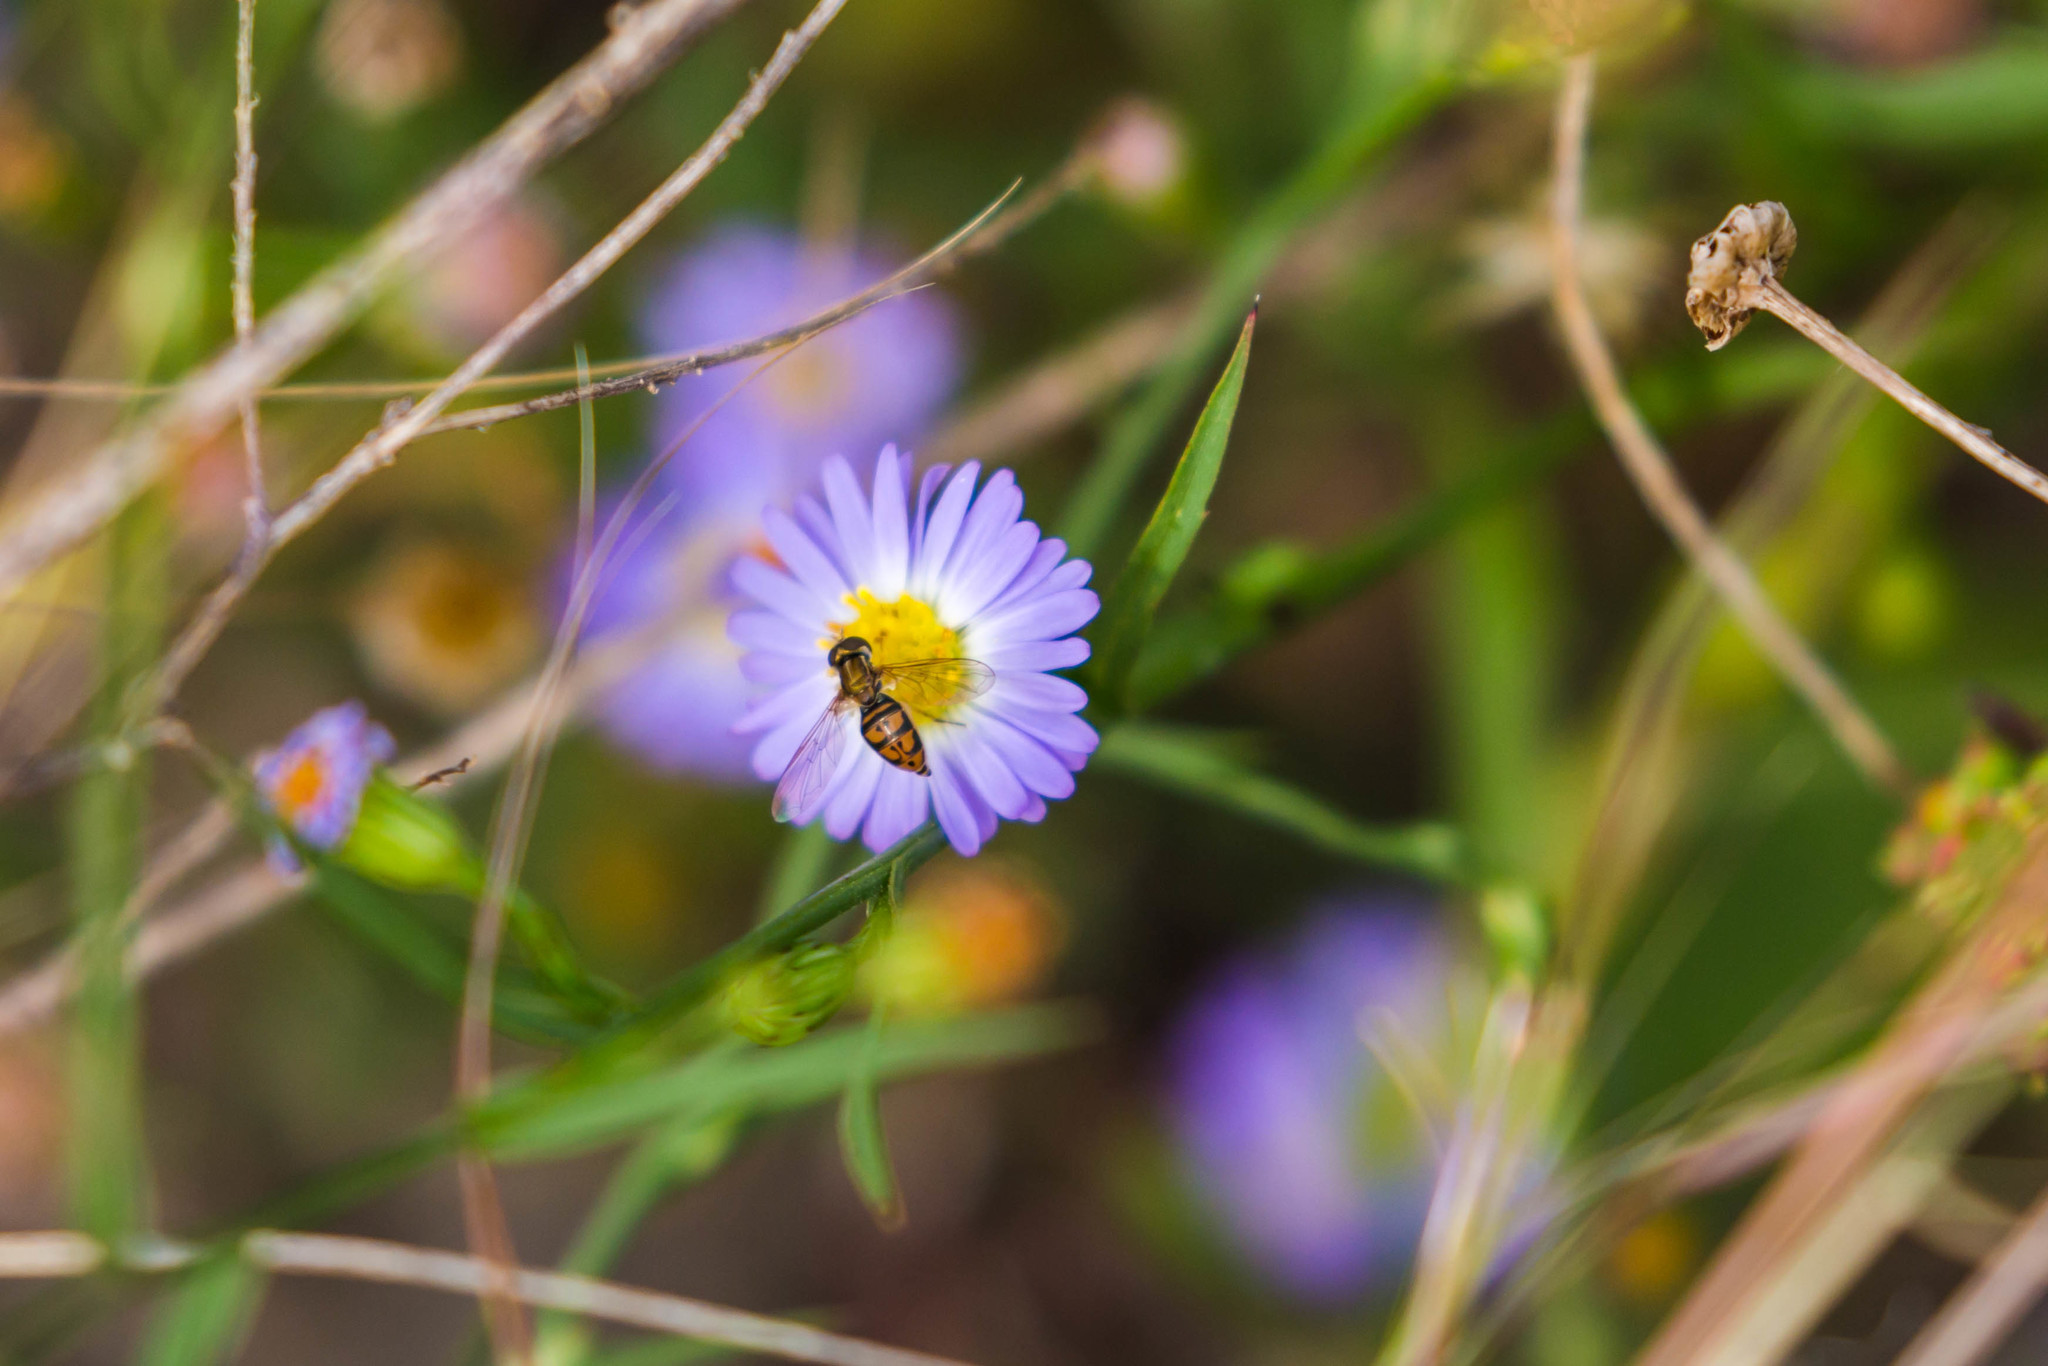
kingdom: Animalia
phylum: Arthropoda
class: Insecta
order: Diptera
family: Syrphidae
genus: Toxomerus
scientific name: Toxomerus marginatus
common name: Syrphid fly
